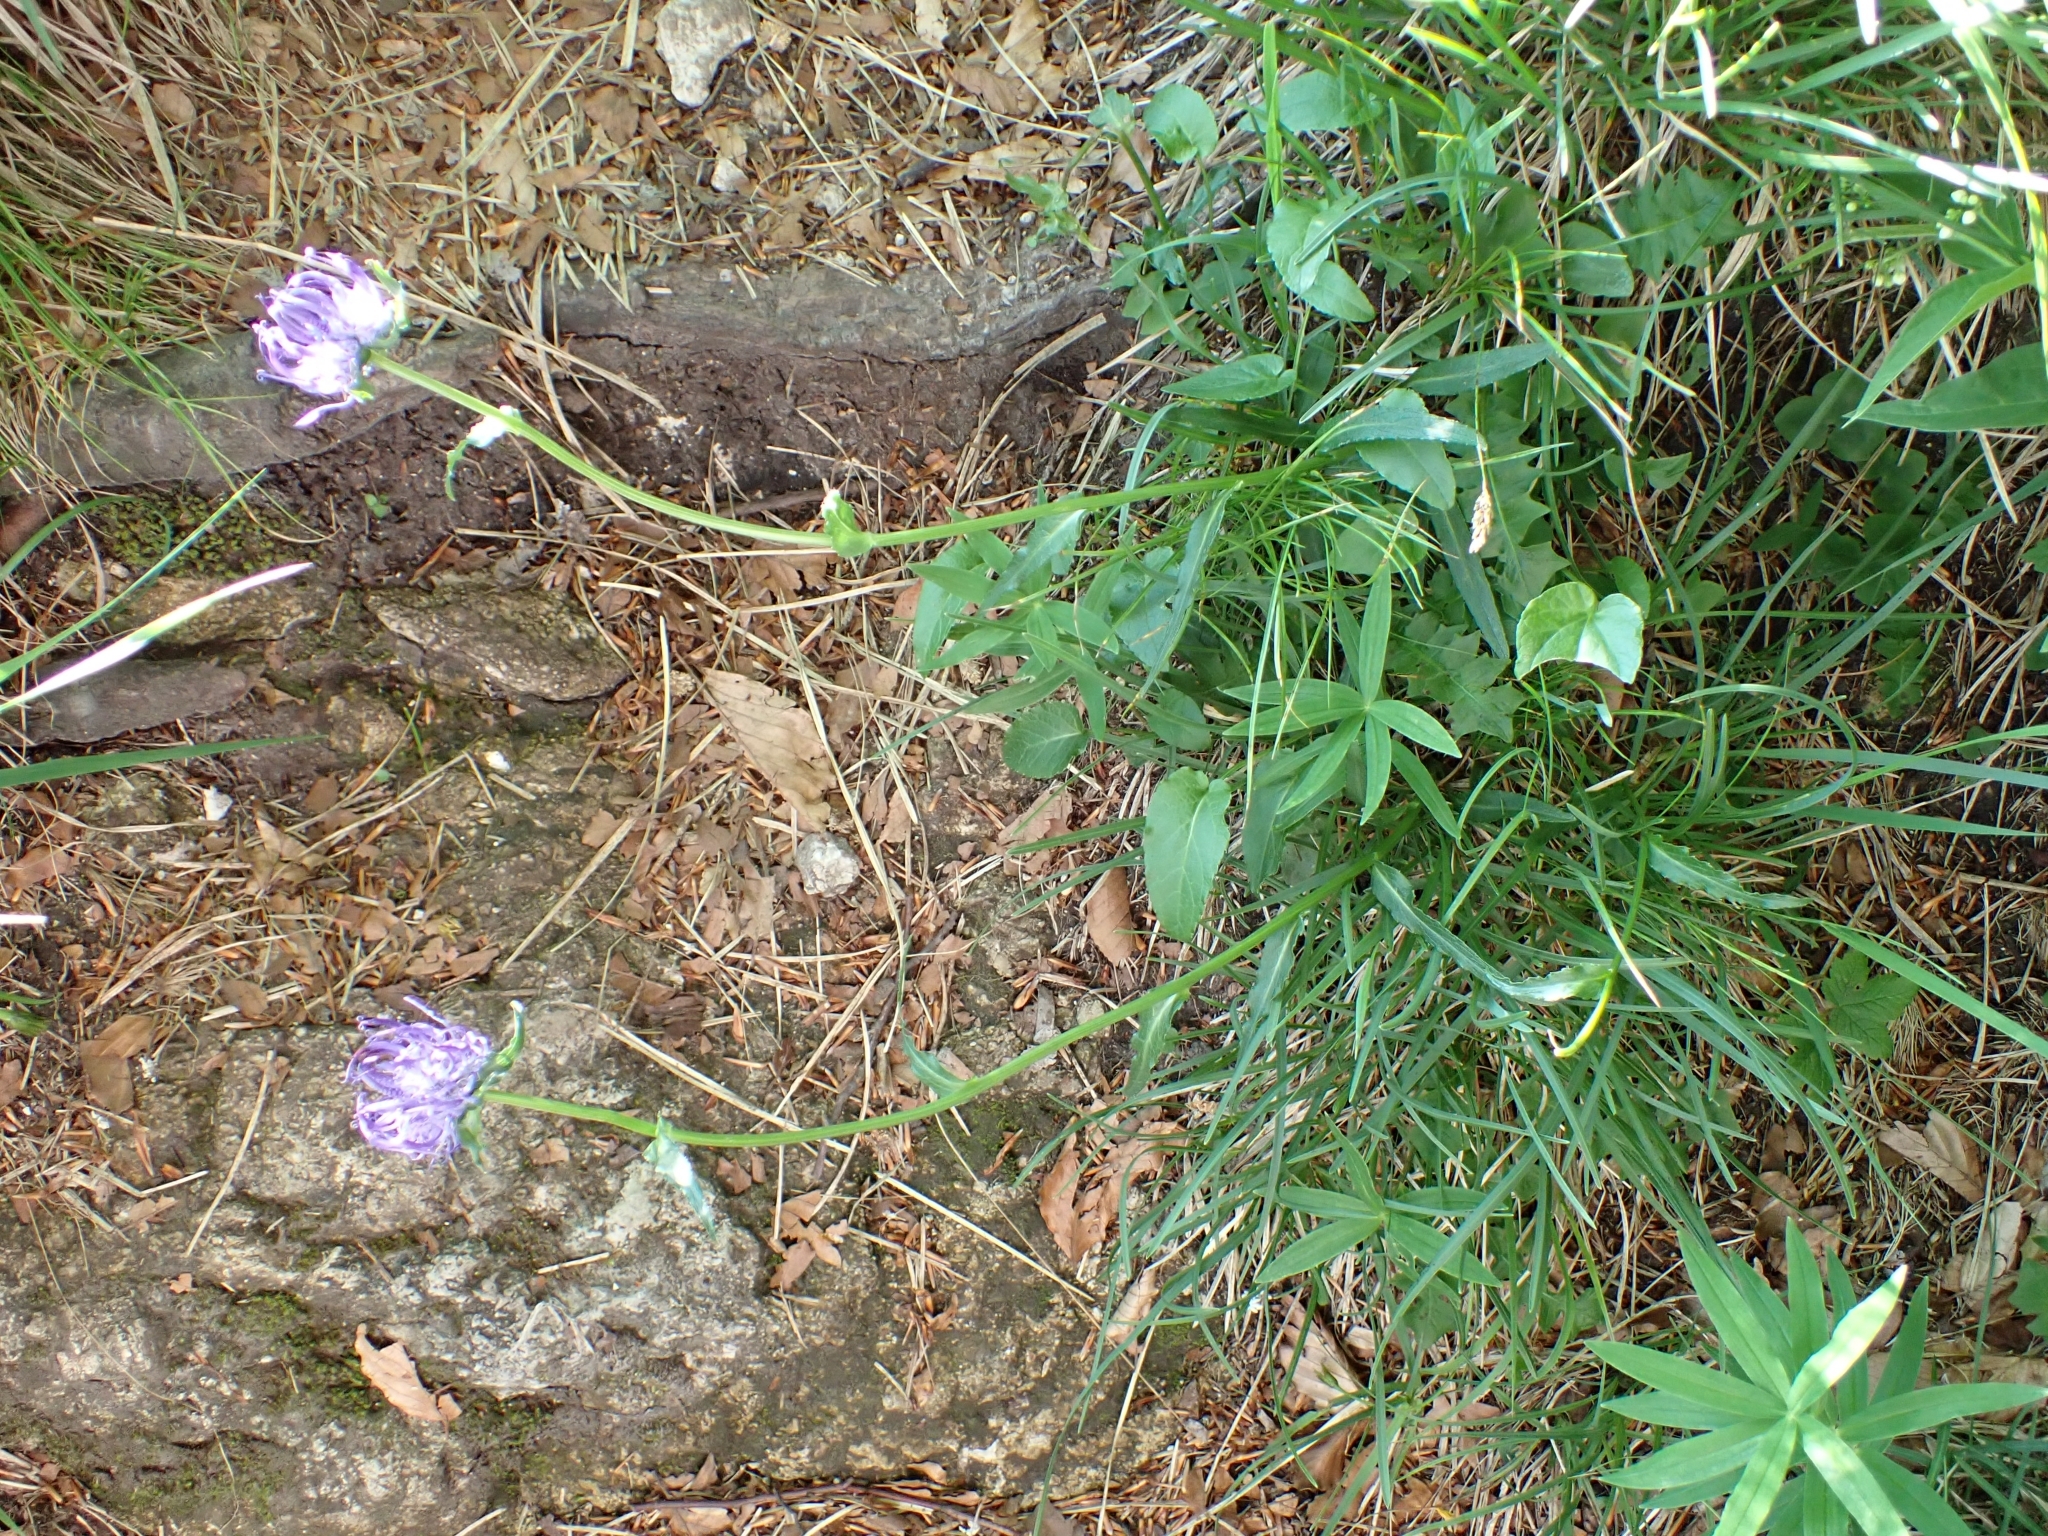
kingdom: Plantae
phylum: Tracheophyta
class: Magnoliopsida
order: Asterales
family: Campanulaceae
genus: Phyteuma
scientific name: Phyteuma orbiculare
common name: Round-headed rampion
